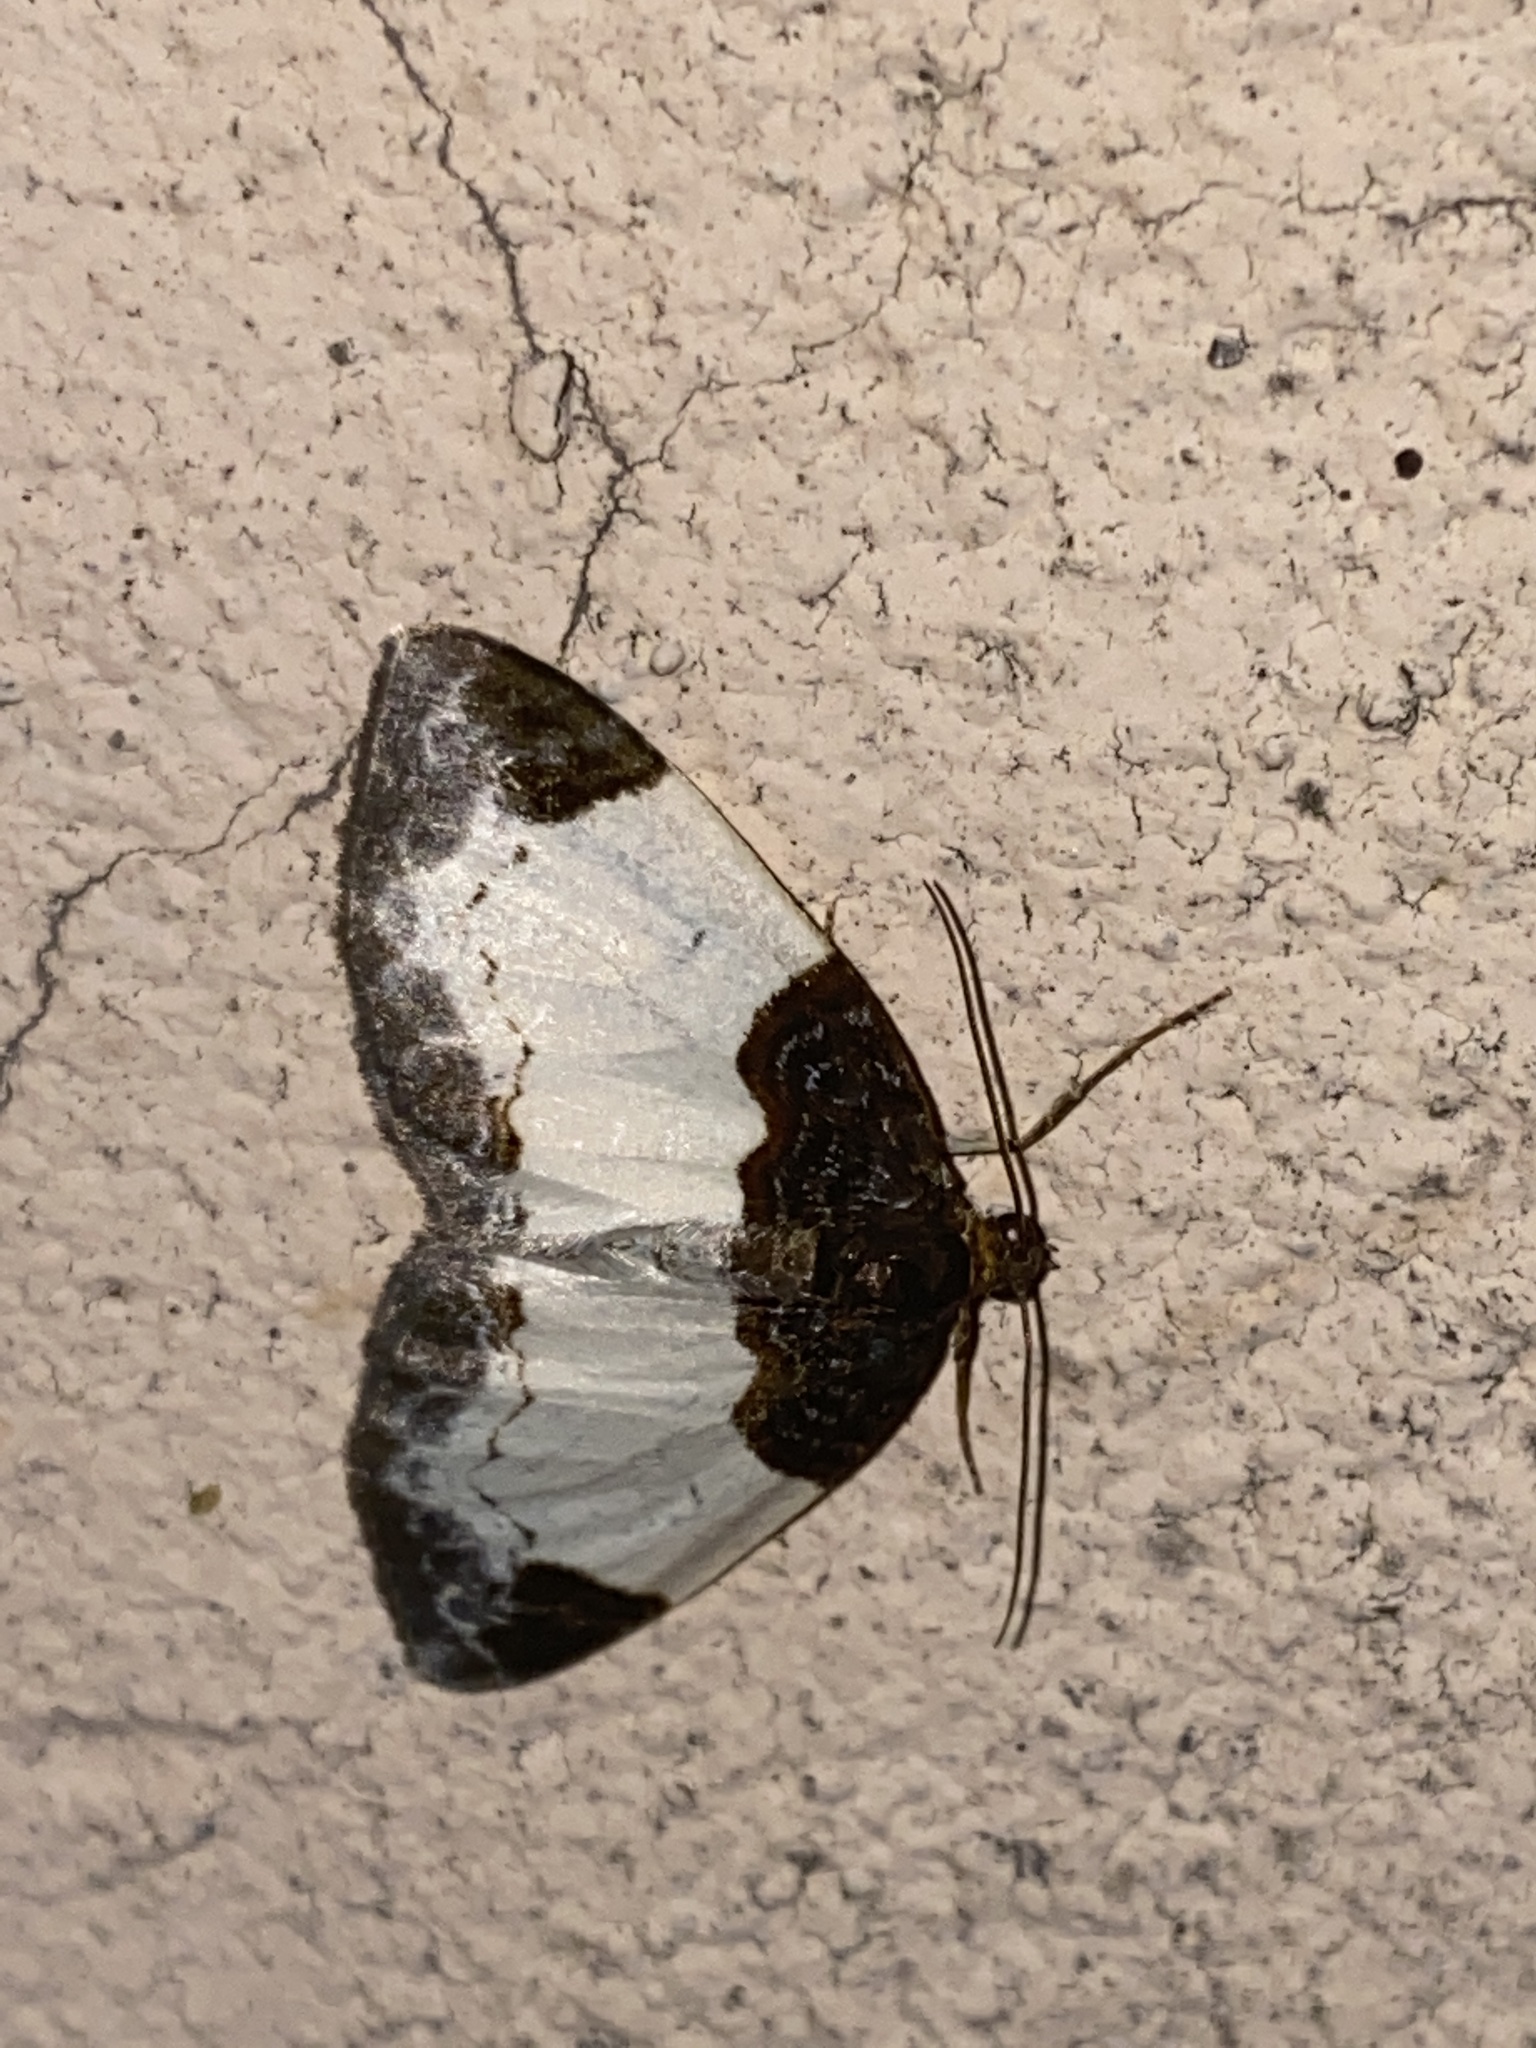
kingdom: Animalia
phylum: Arthropoda
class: Insecta
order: Lepidoptera
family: Geometridae
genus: Mesoleuca
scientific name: Mesoleuca albicillata
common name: Beautiful carpet
